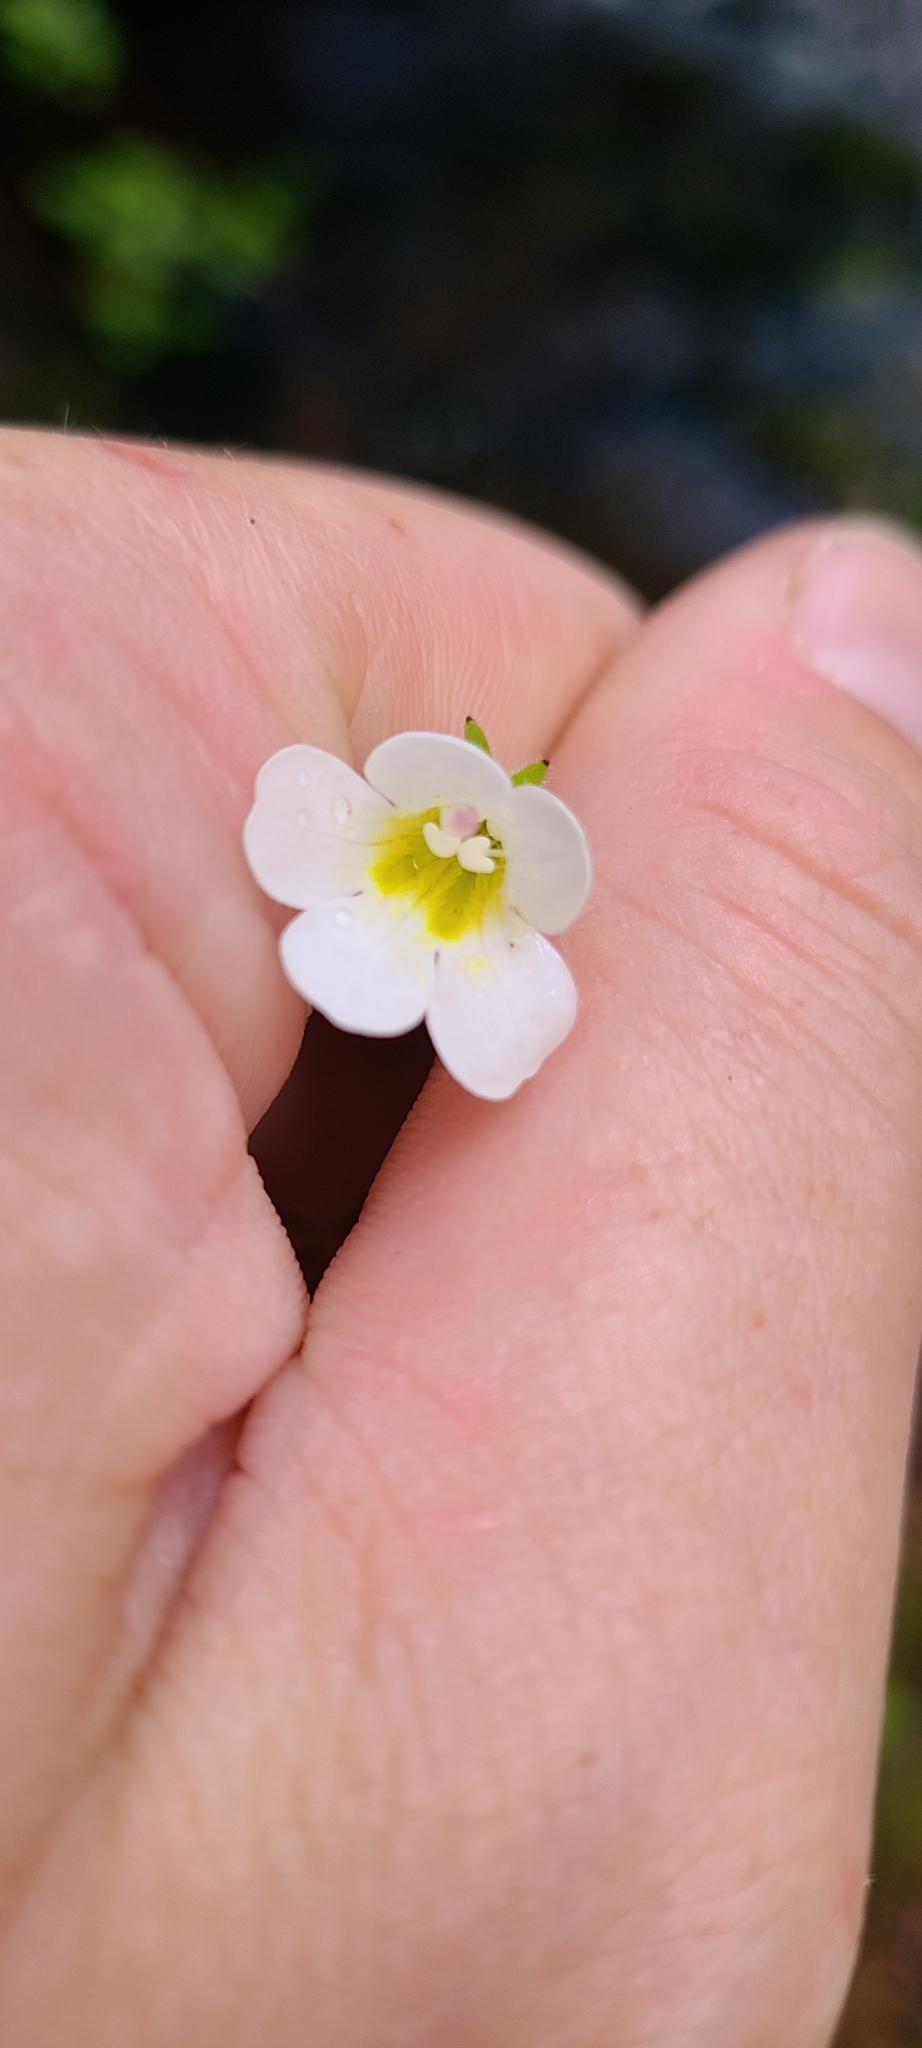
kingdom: Plantae
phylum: Tracheophyta
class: Magnoliopsida
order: Lamiales
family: Plantaginaceae
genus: Ourisia
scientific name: Ourisia macrophylla
